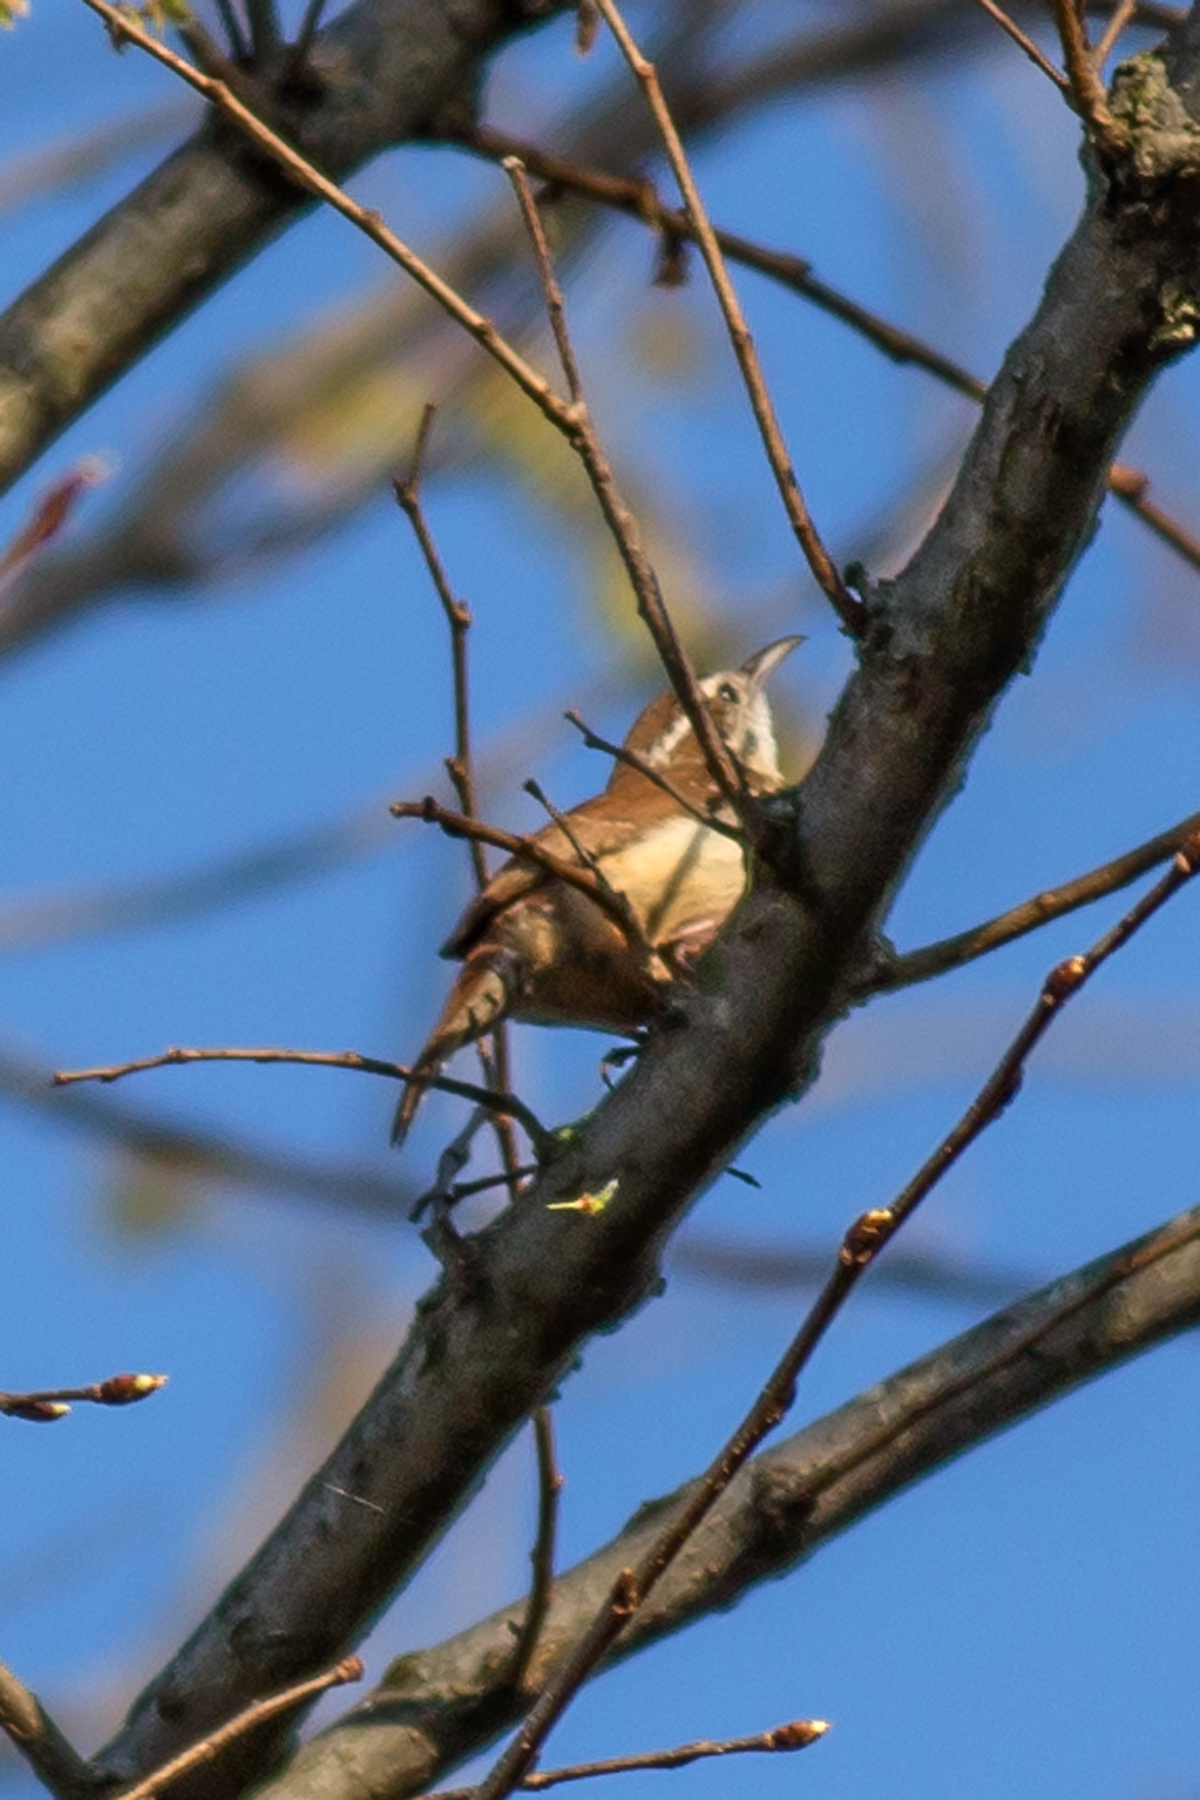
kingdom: Animalia
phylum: Chordata
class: Aves
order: Passeriformes
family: Troglodytidae
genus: Thryothorus
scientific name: Thryothorus ludovicianus
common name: Carolina wren
